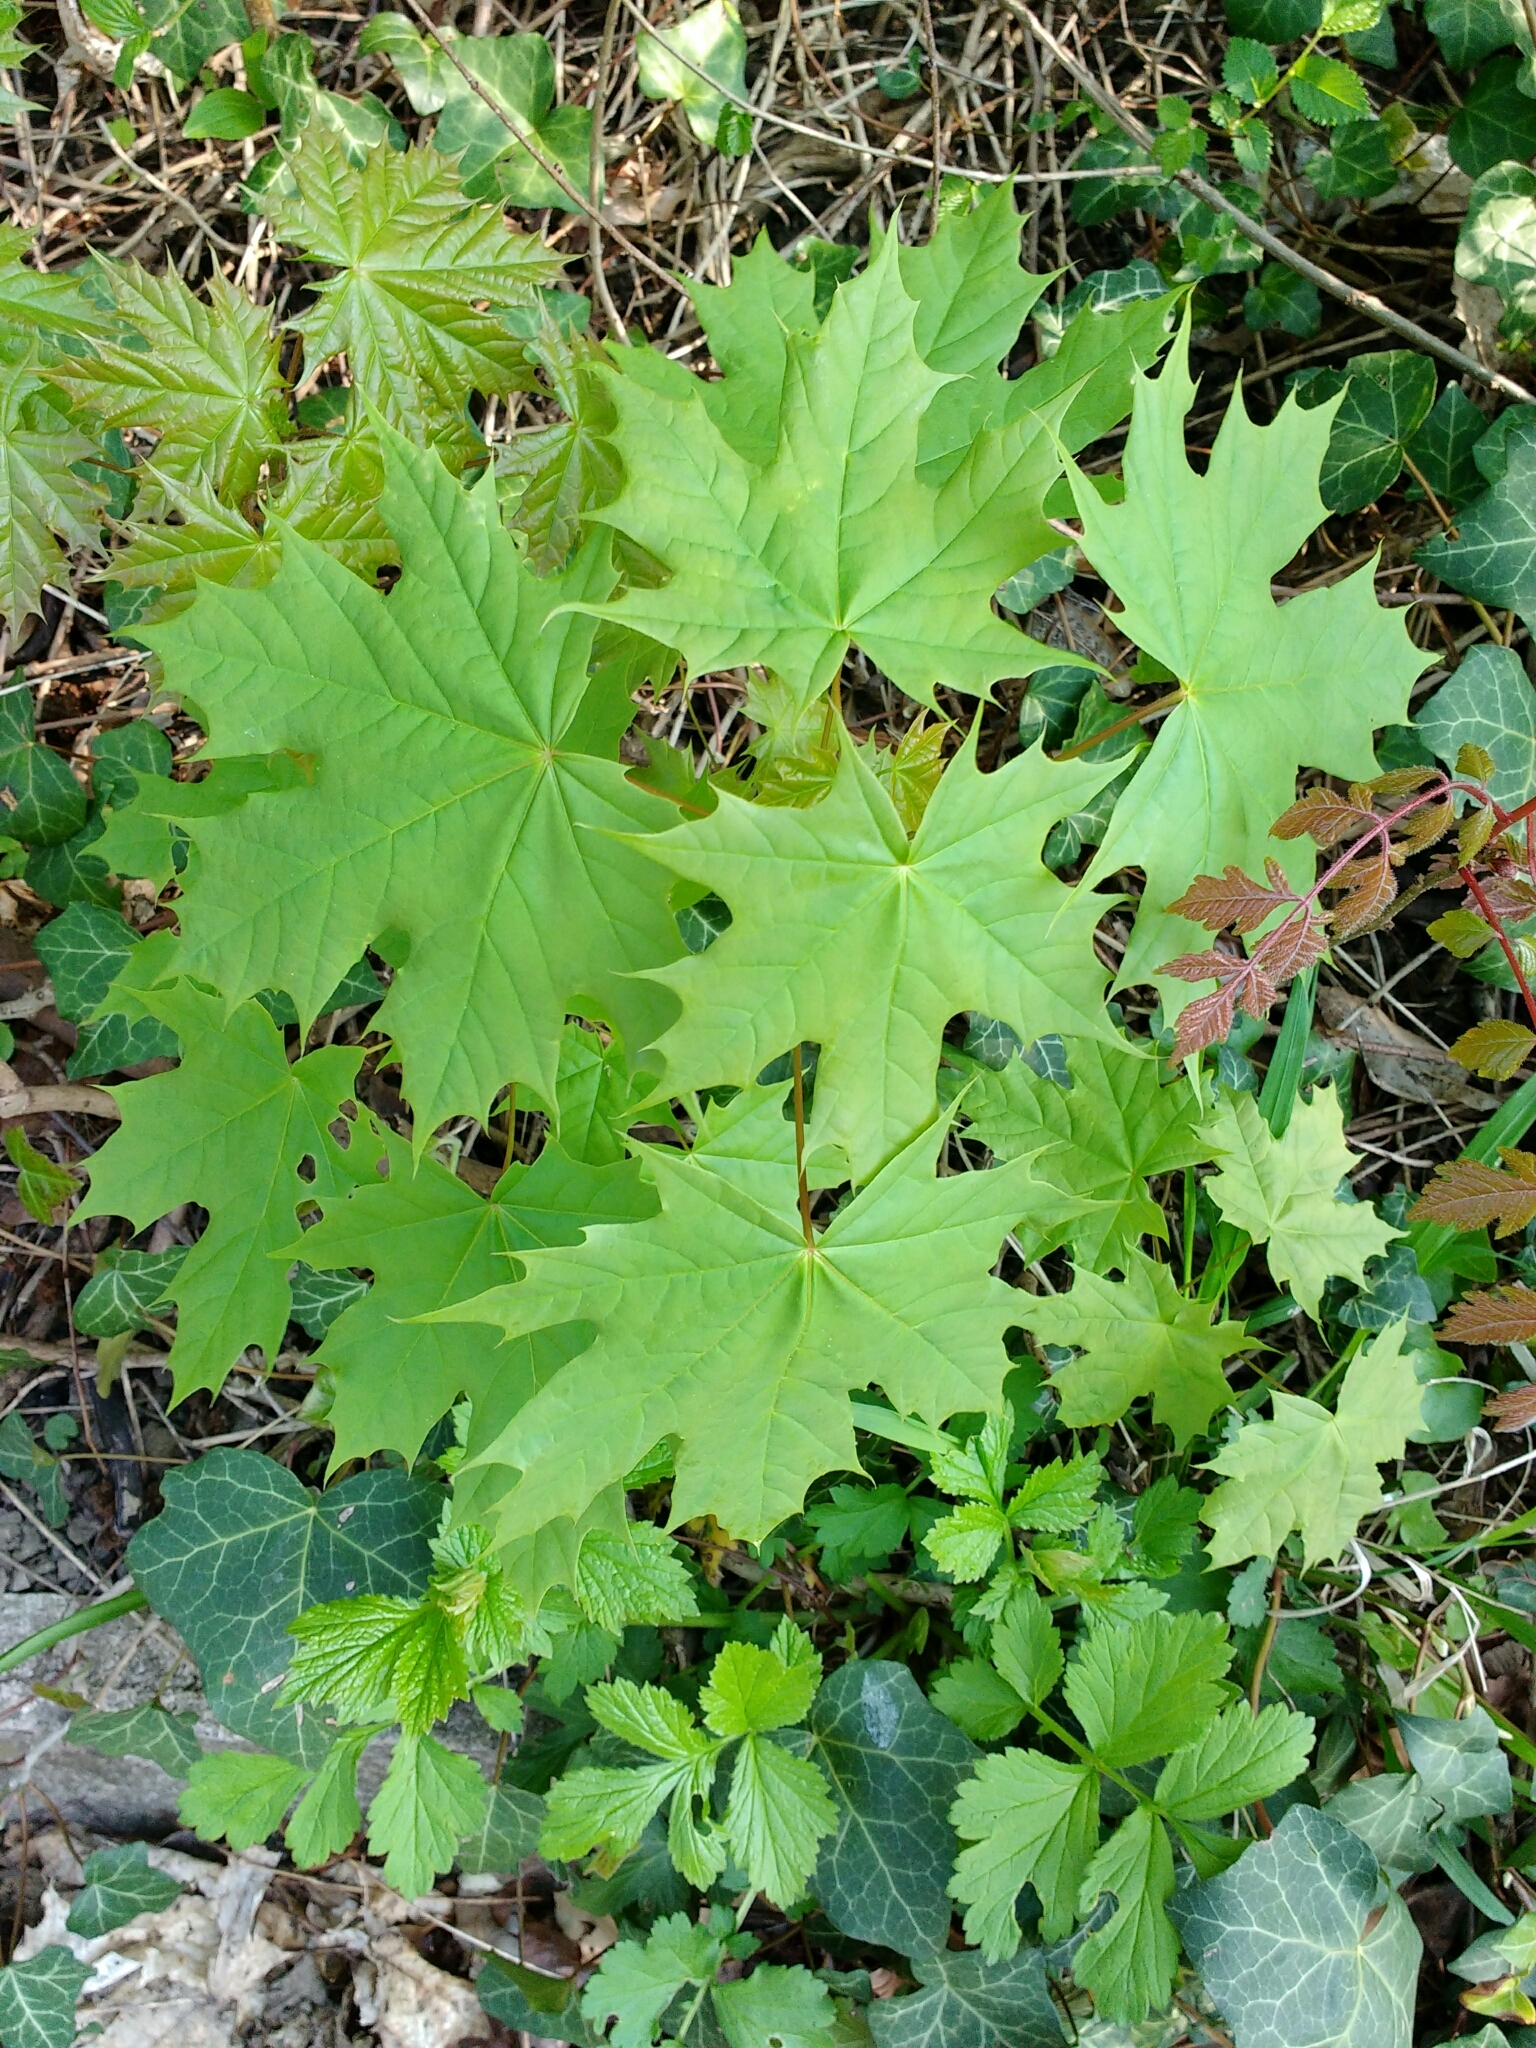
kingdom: Plantae
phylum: Tracheophyta
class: Magnoliopsida
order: Sapindales
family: Sapindaceae
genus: Acer
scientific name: Acer platanoides
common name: Norway maple
